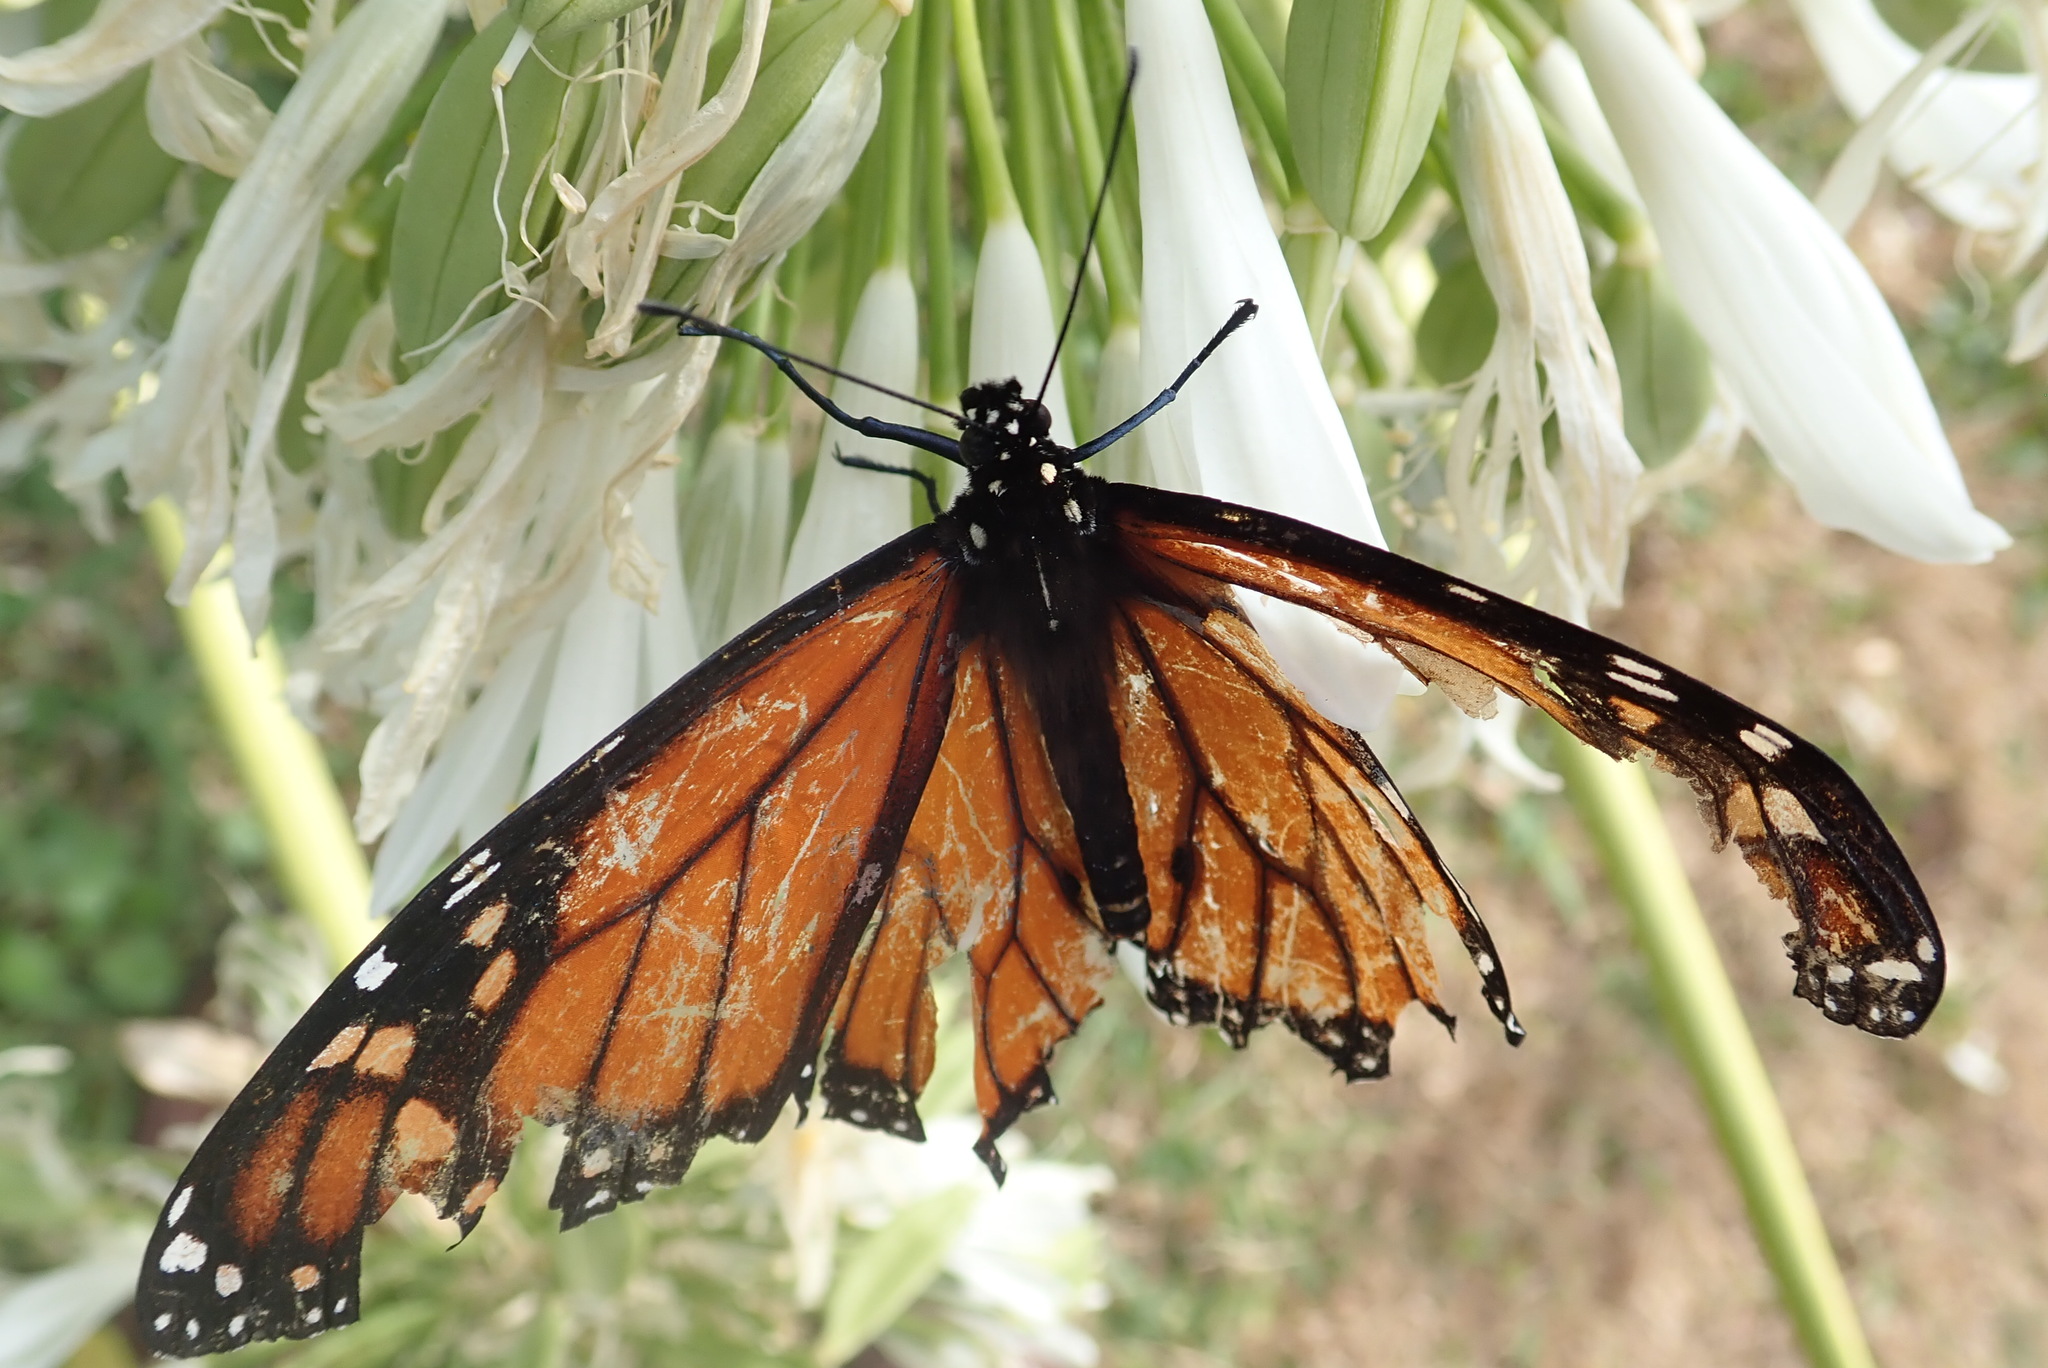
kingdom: Animalia
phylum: Arthropoda
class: Insecta
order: Lepidoptera
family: Nymphalidae
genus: Danaus
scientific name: Danaus plexippus
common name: Monarch
